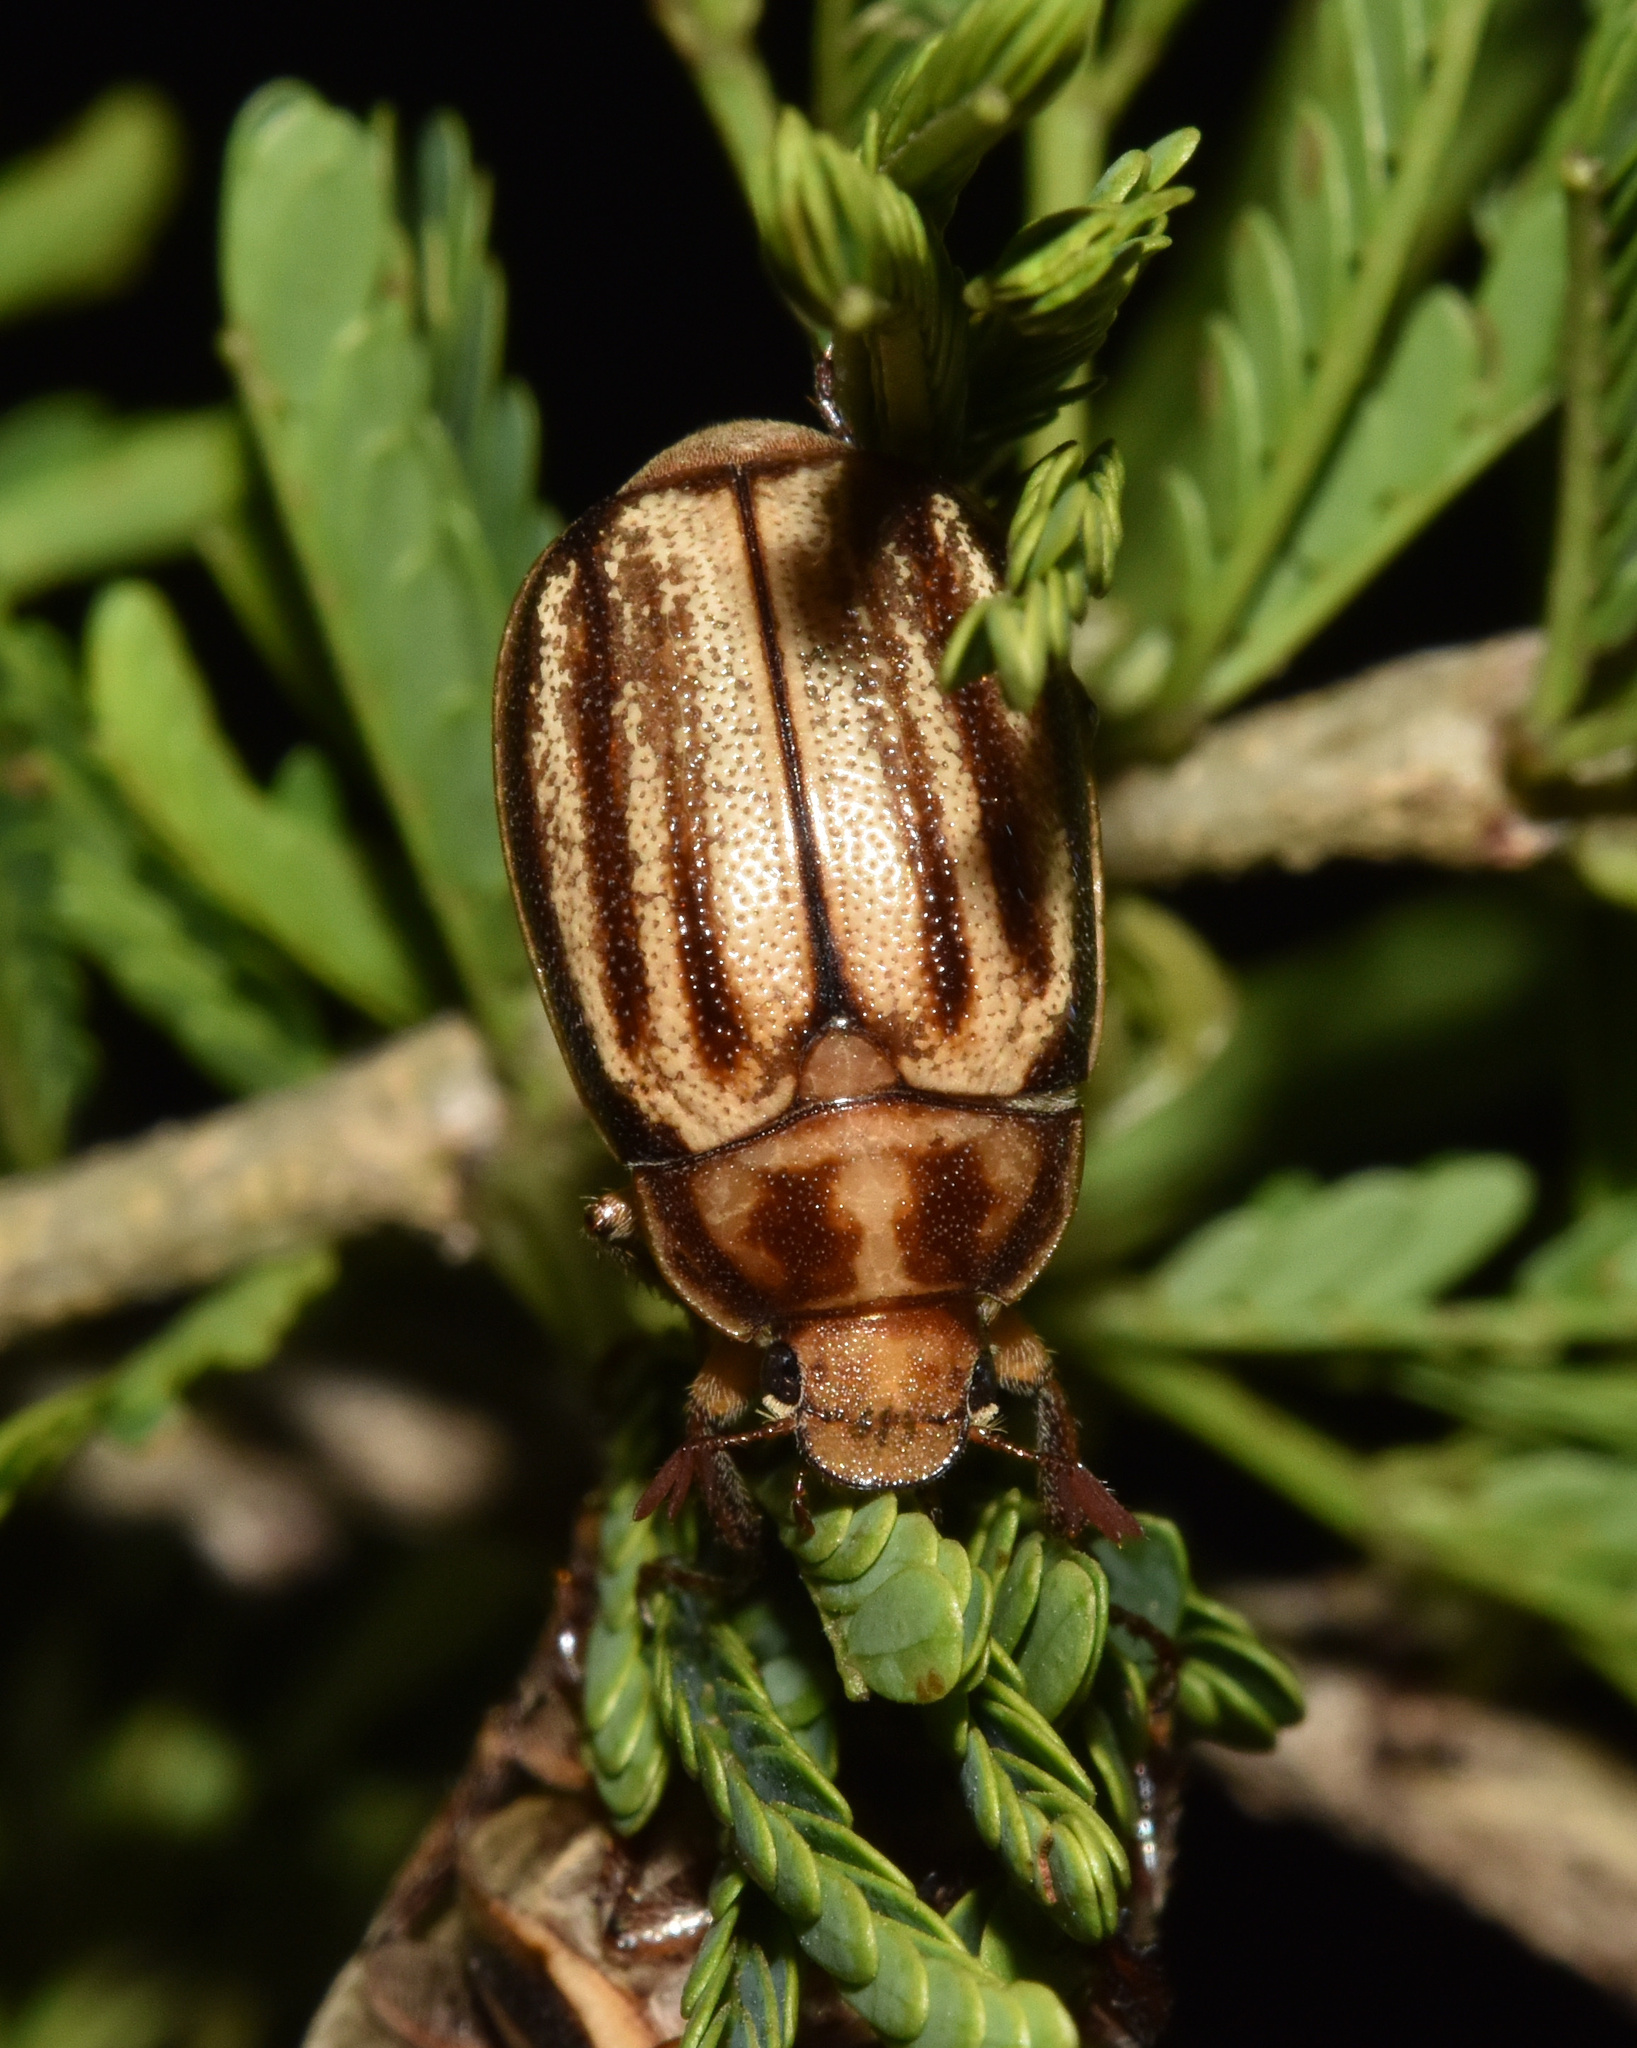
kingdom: Animalia
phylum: Arthropoda
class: Insecta
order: Coleoptera
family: Scarabaeidae
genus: Pegylis
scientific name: Pegylis vittata
